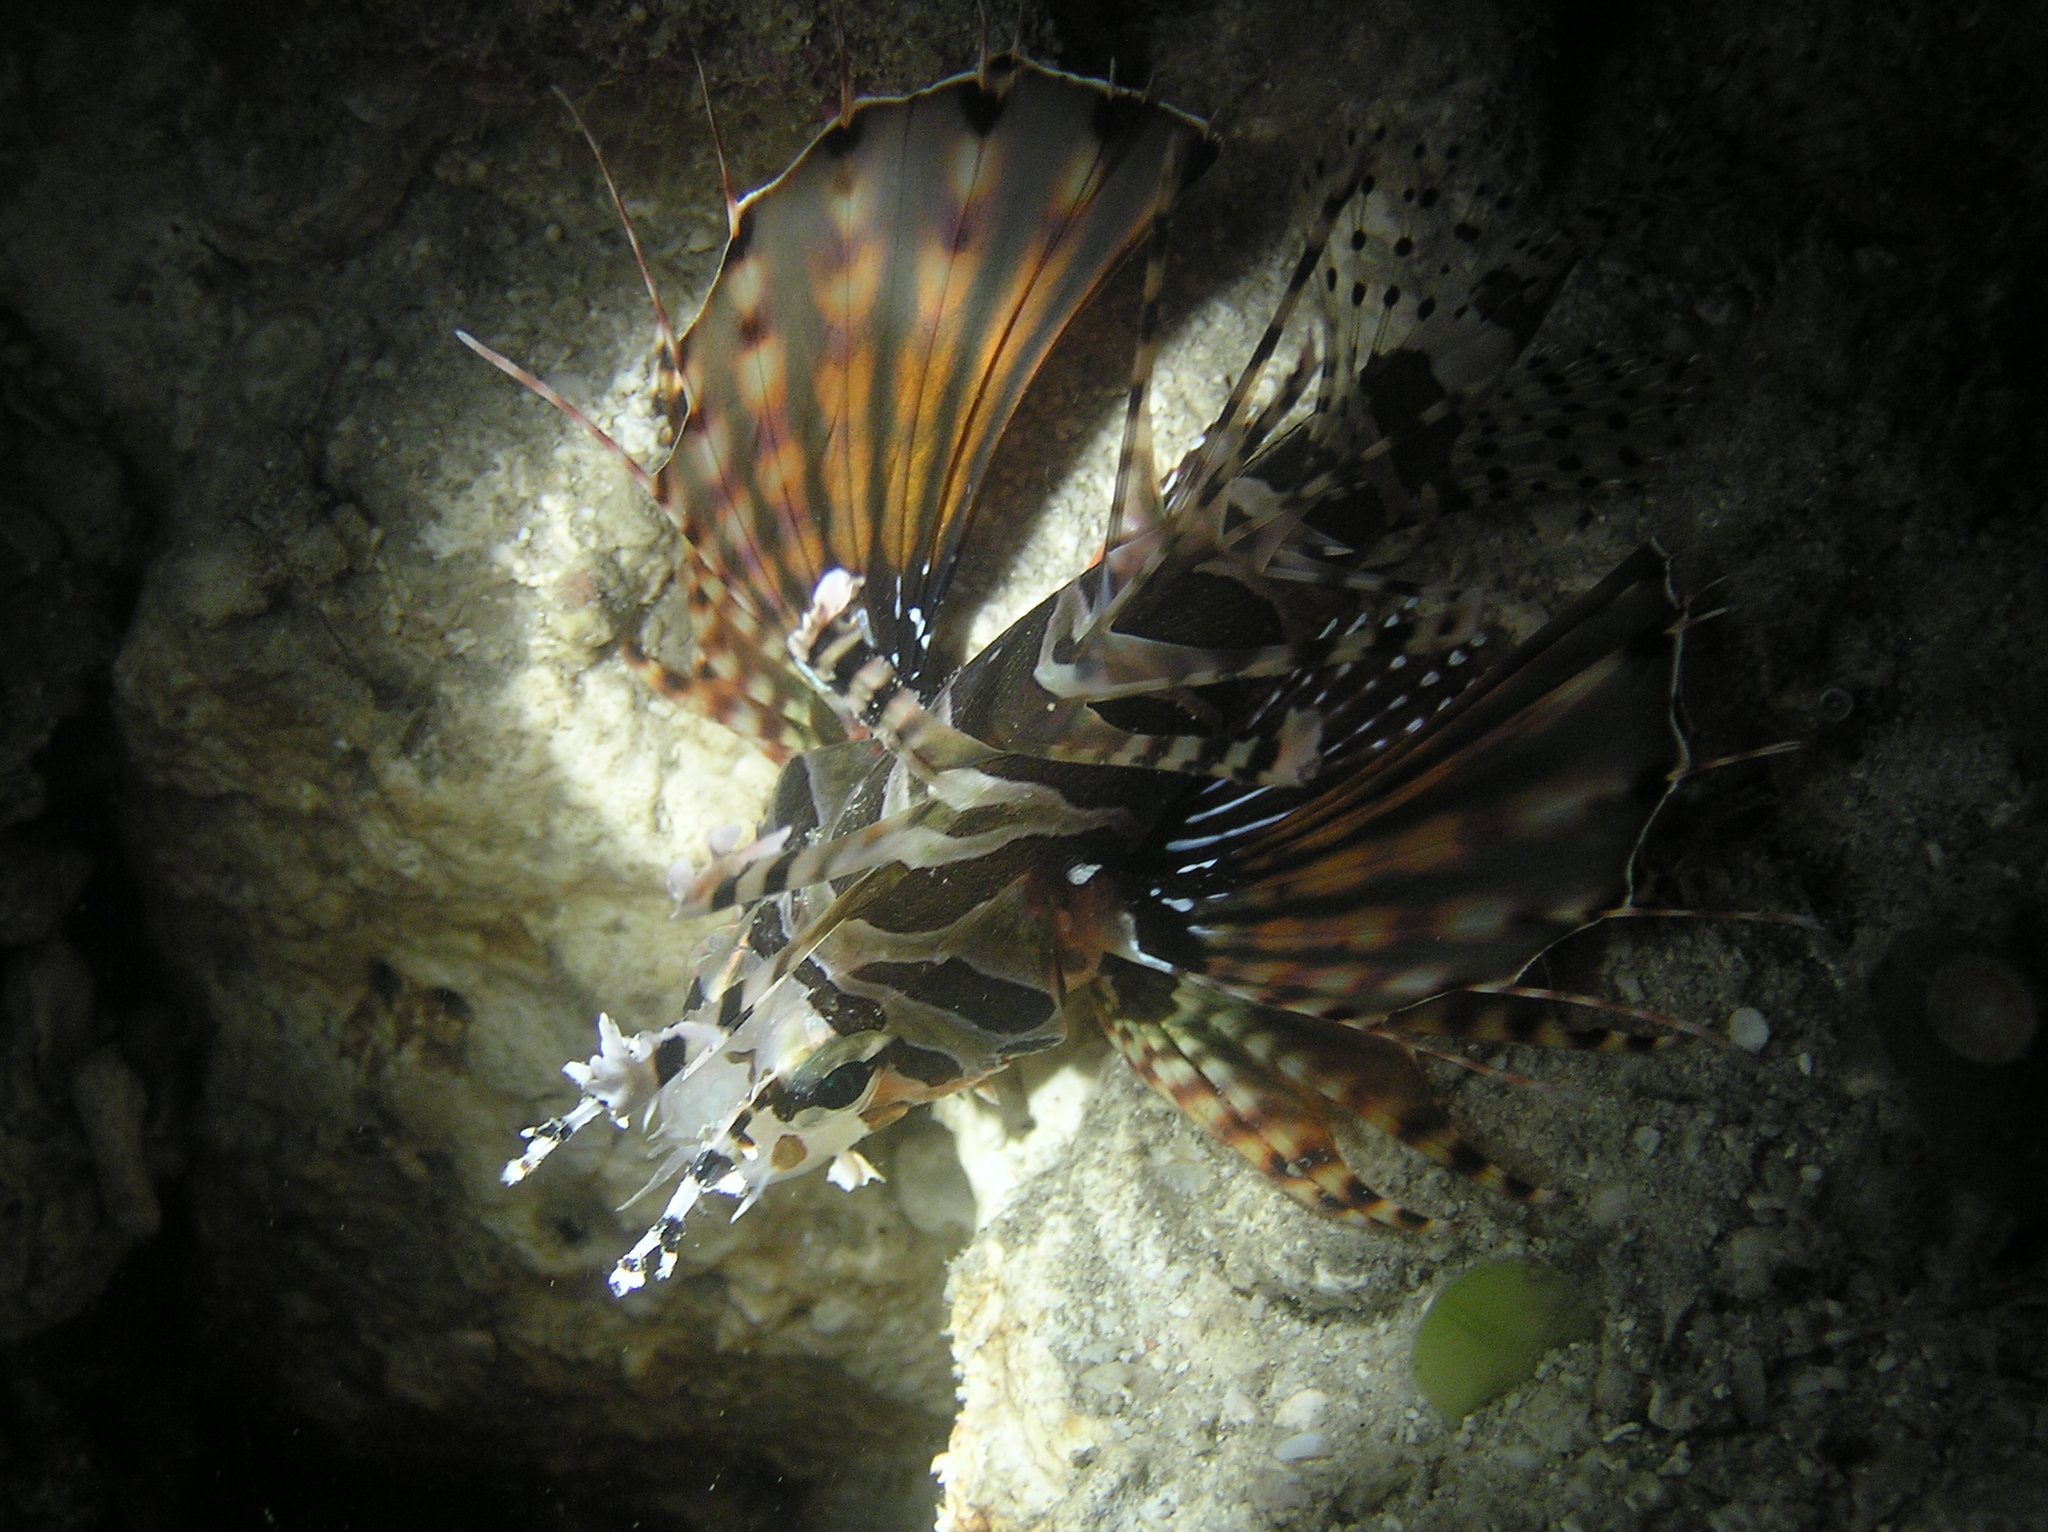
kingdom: Animalia
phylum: Chordata
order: Scorpaeniformes
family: Scorpaenidae
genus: Dendrochirus
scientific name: Dendrochirus zebra
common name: Zebra lionfish
